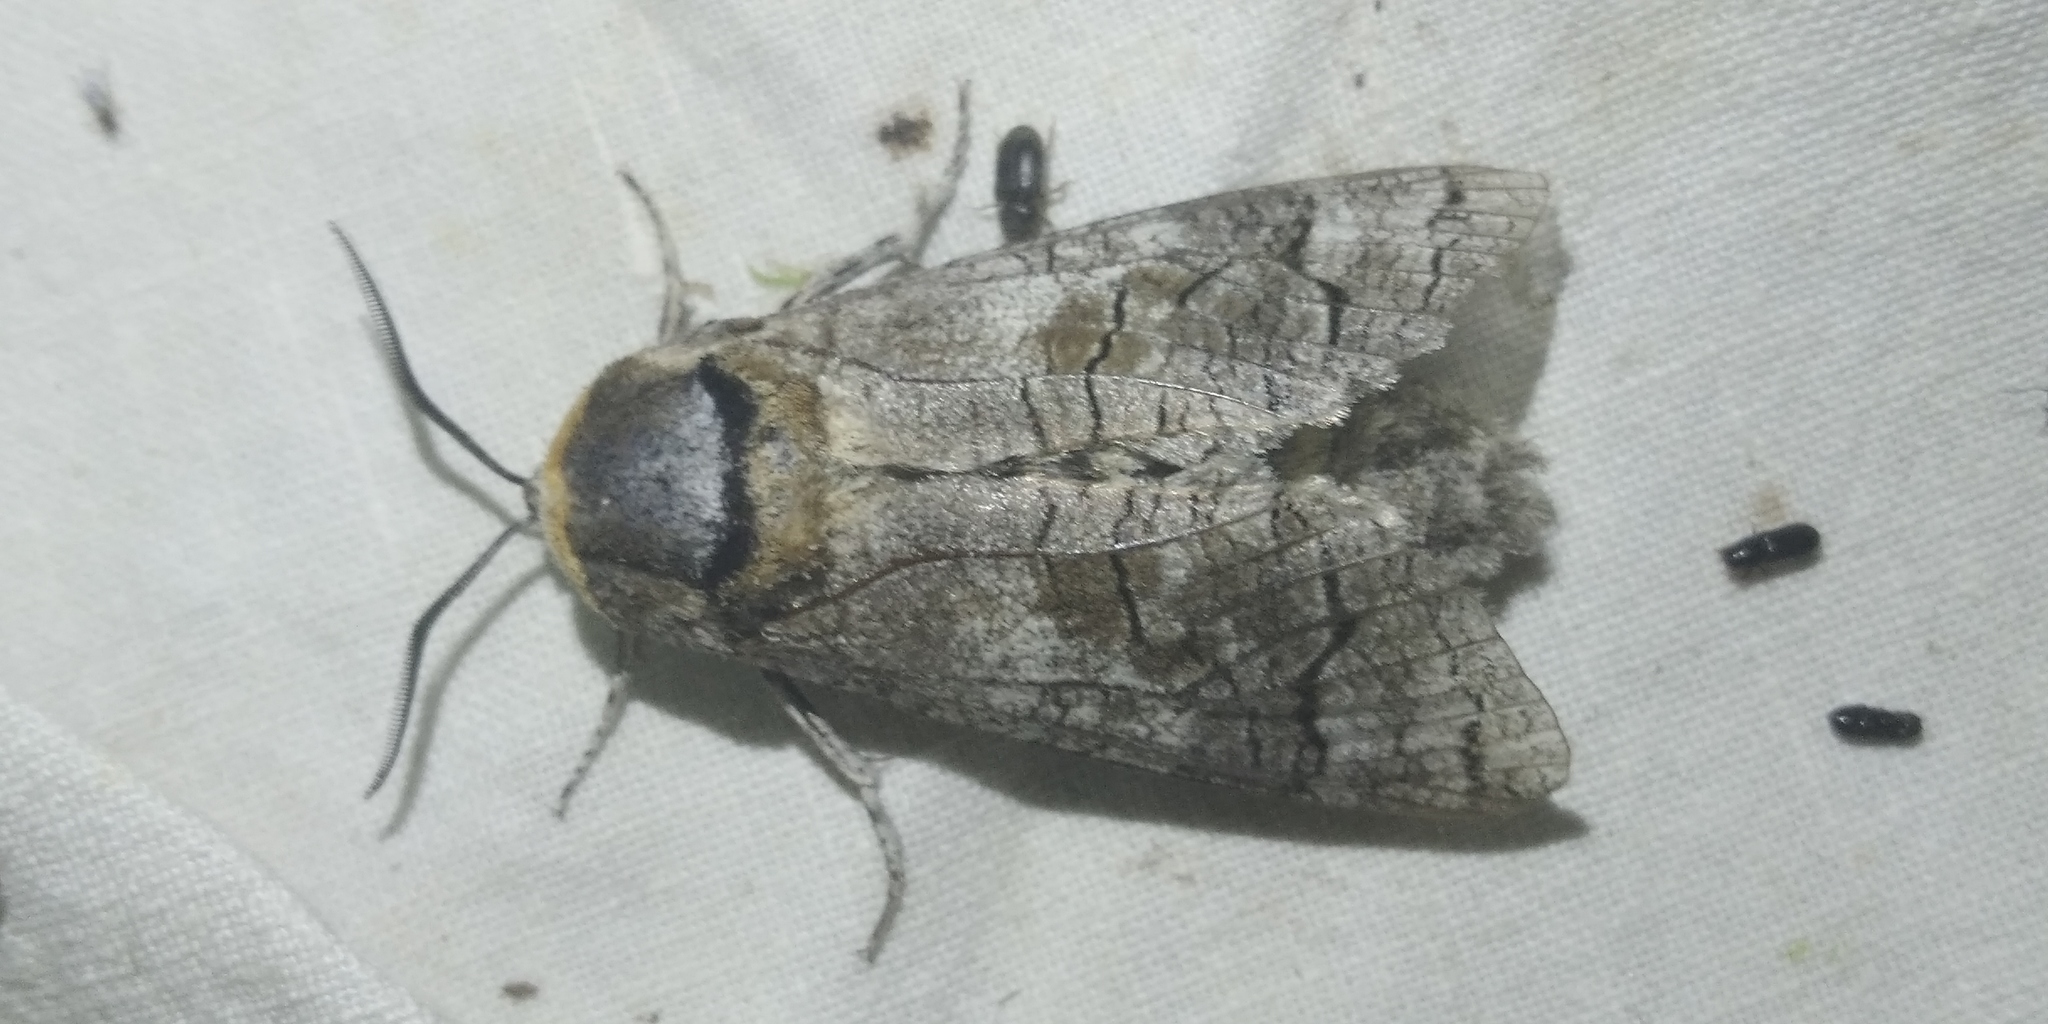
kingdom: Animalia
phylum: Arthropoda
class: Insecta
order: Lepidoptera
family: Cossidae
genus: Cossus
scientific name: Cossus cossus
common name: Goat moth
